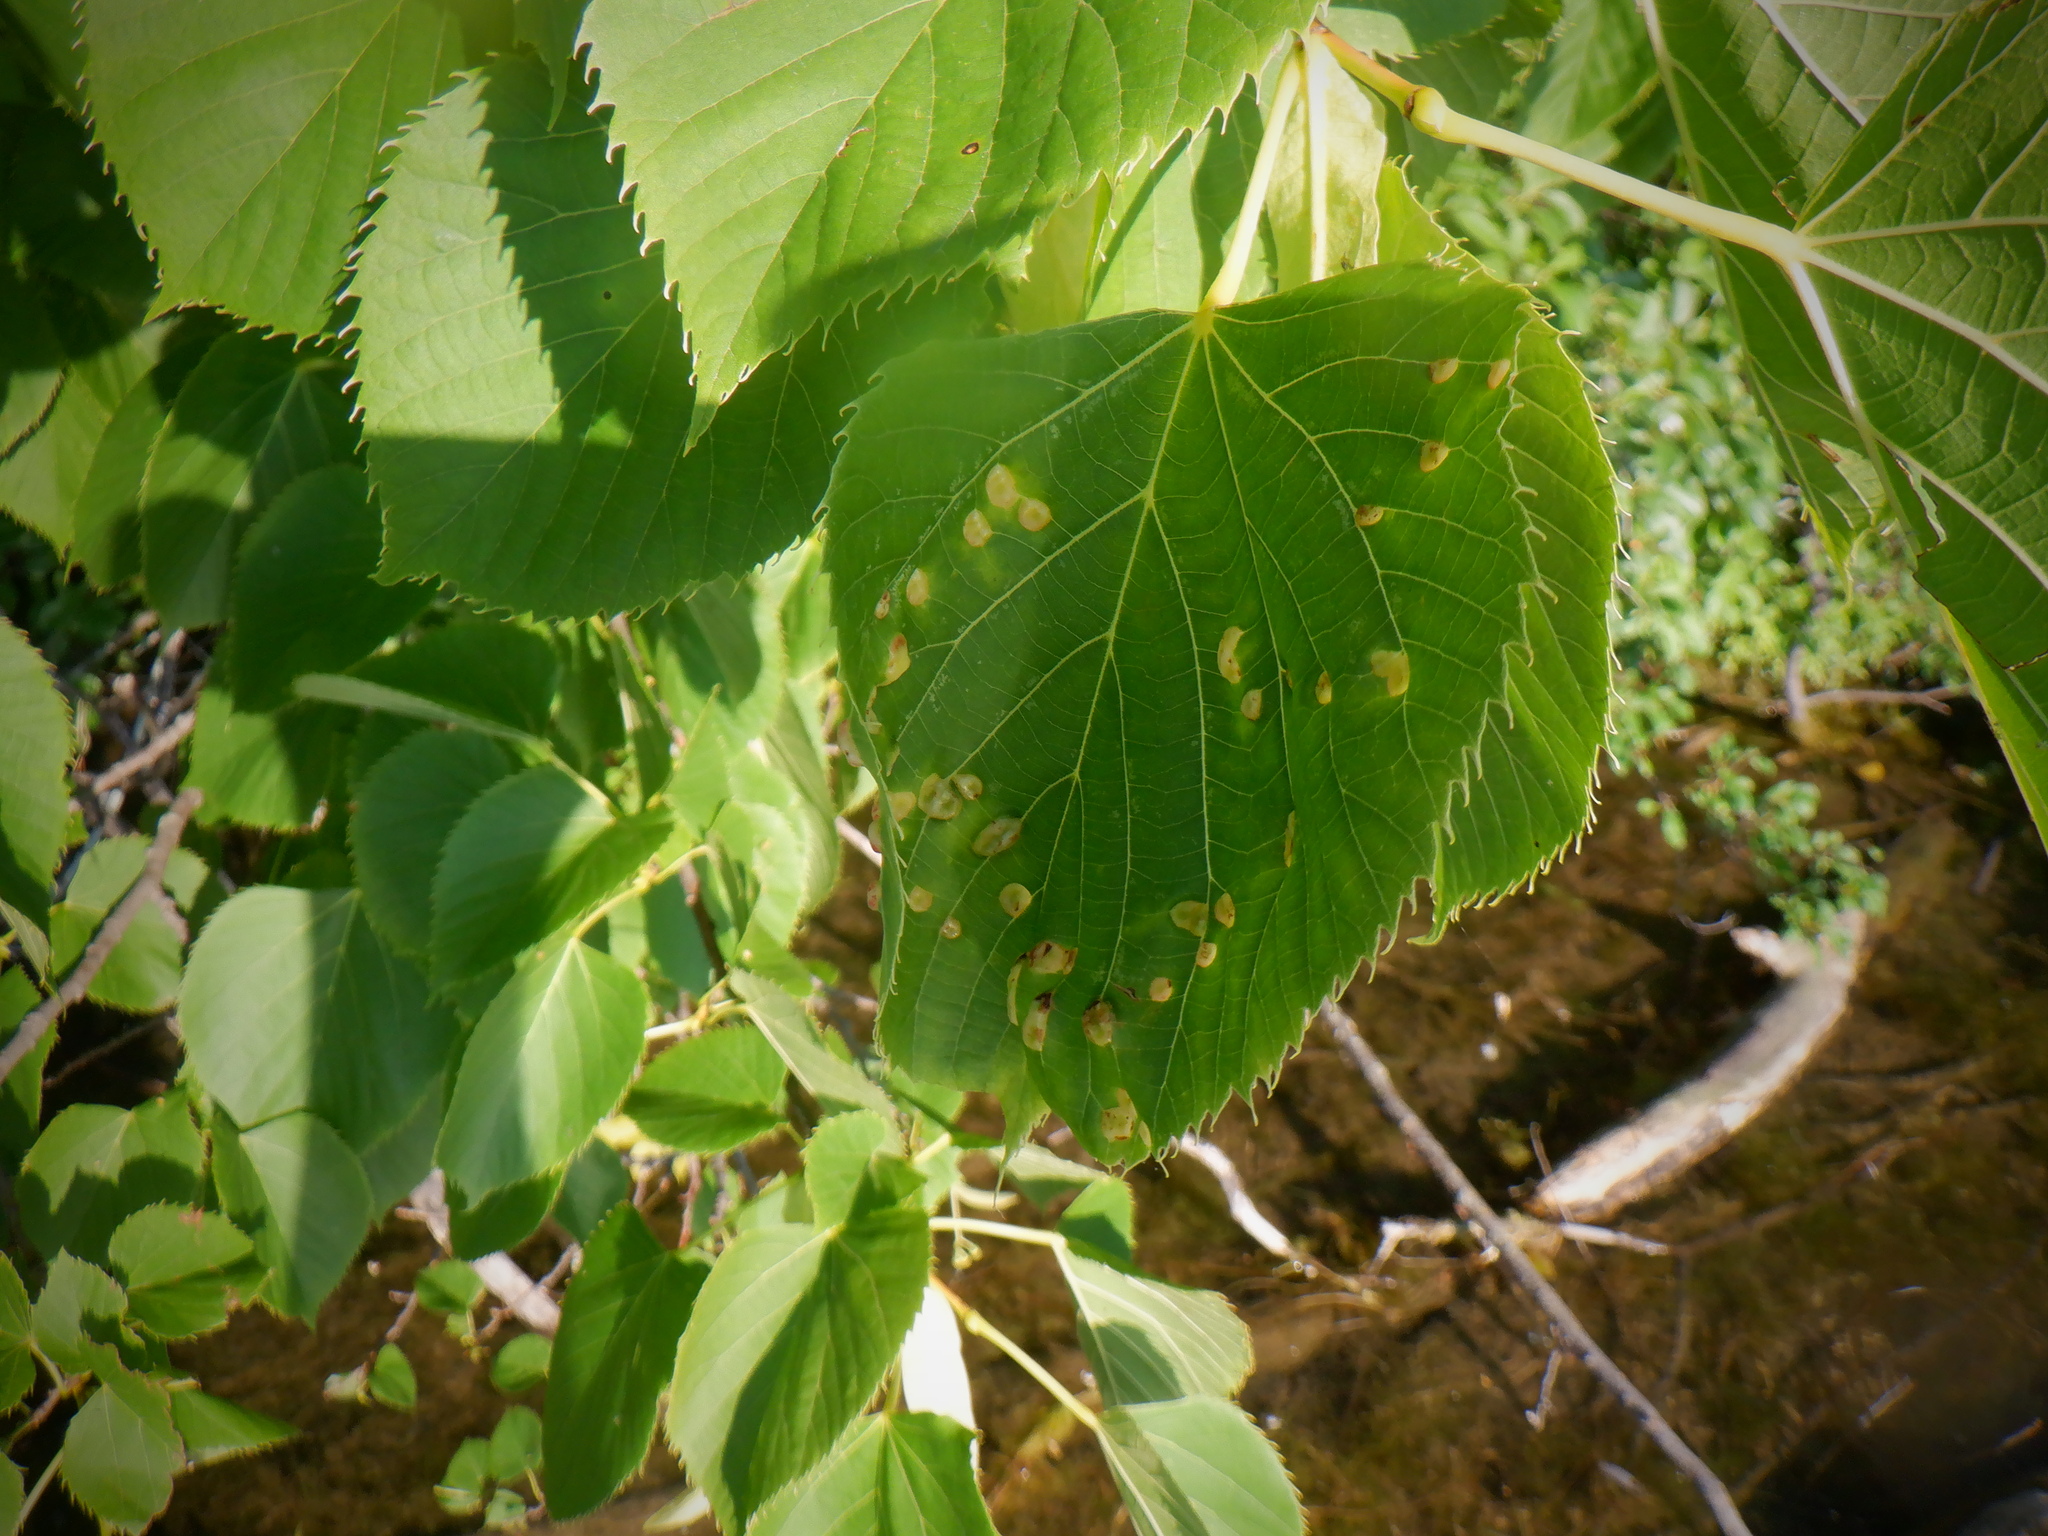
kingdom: Animalia
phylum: Arthropoda
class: Insecta
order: Diptera
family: Cecidomyiidae
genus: Contarinia
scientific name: Contarinia verrucicola
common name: Linden wart gall midge
